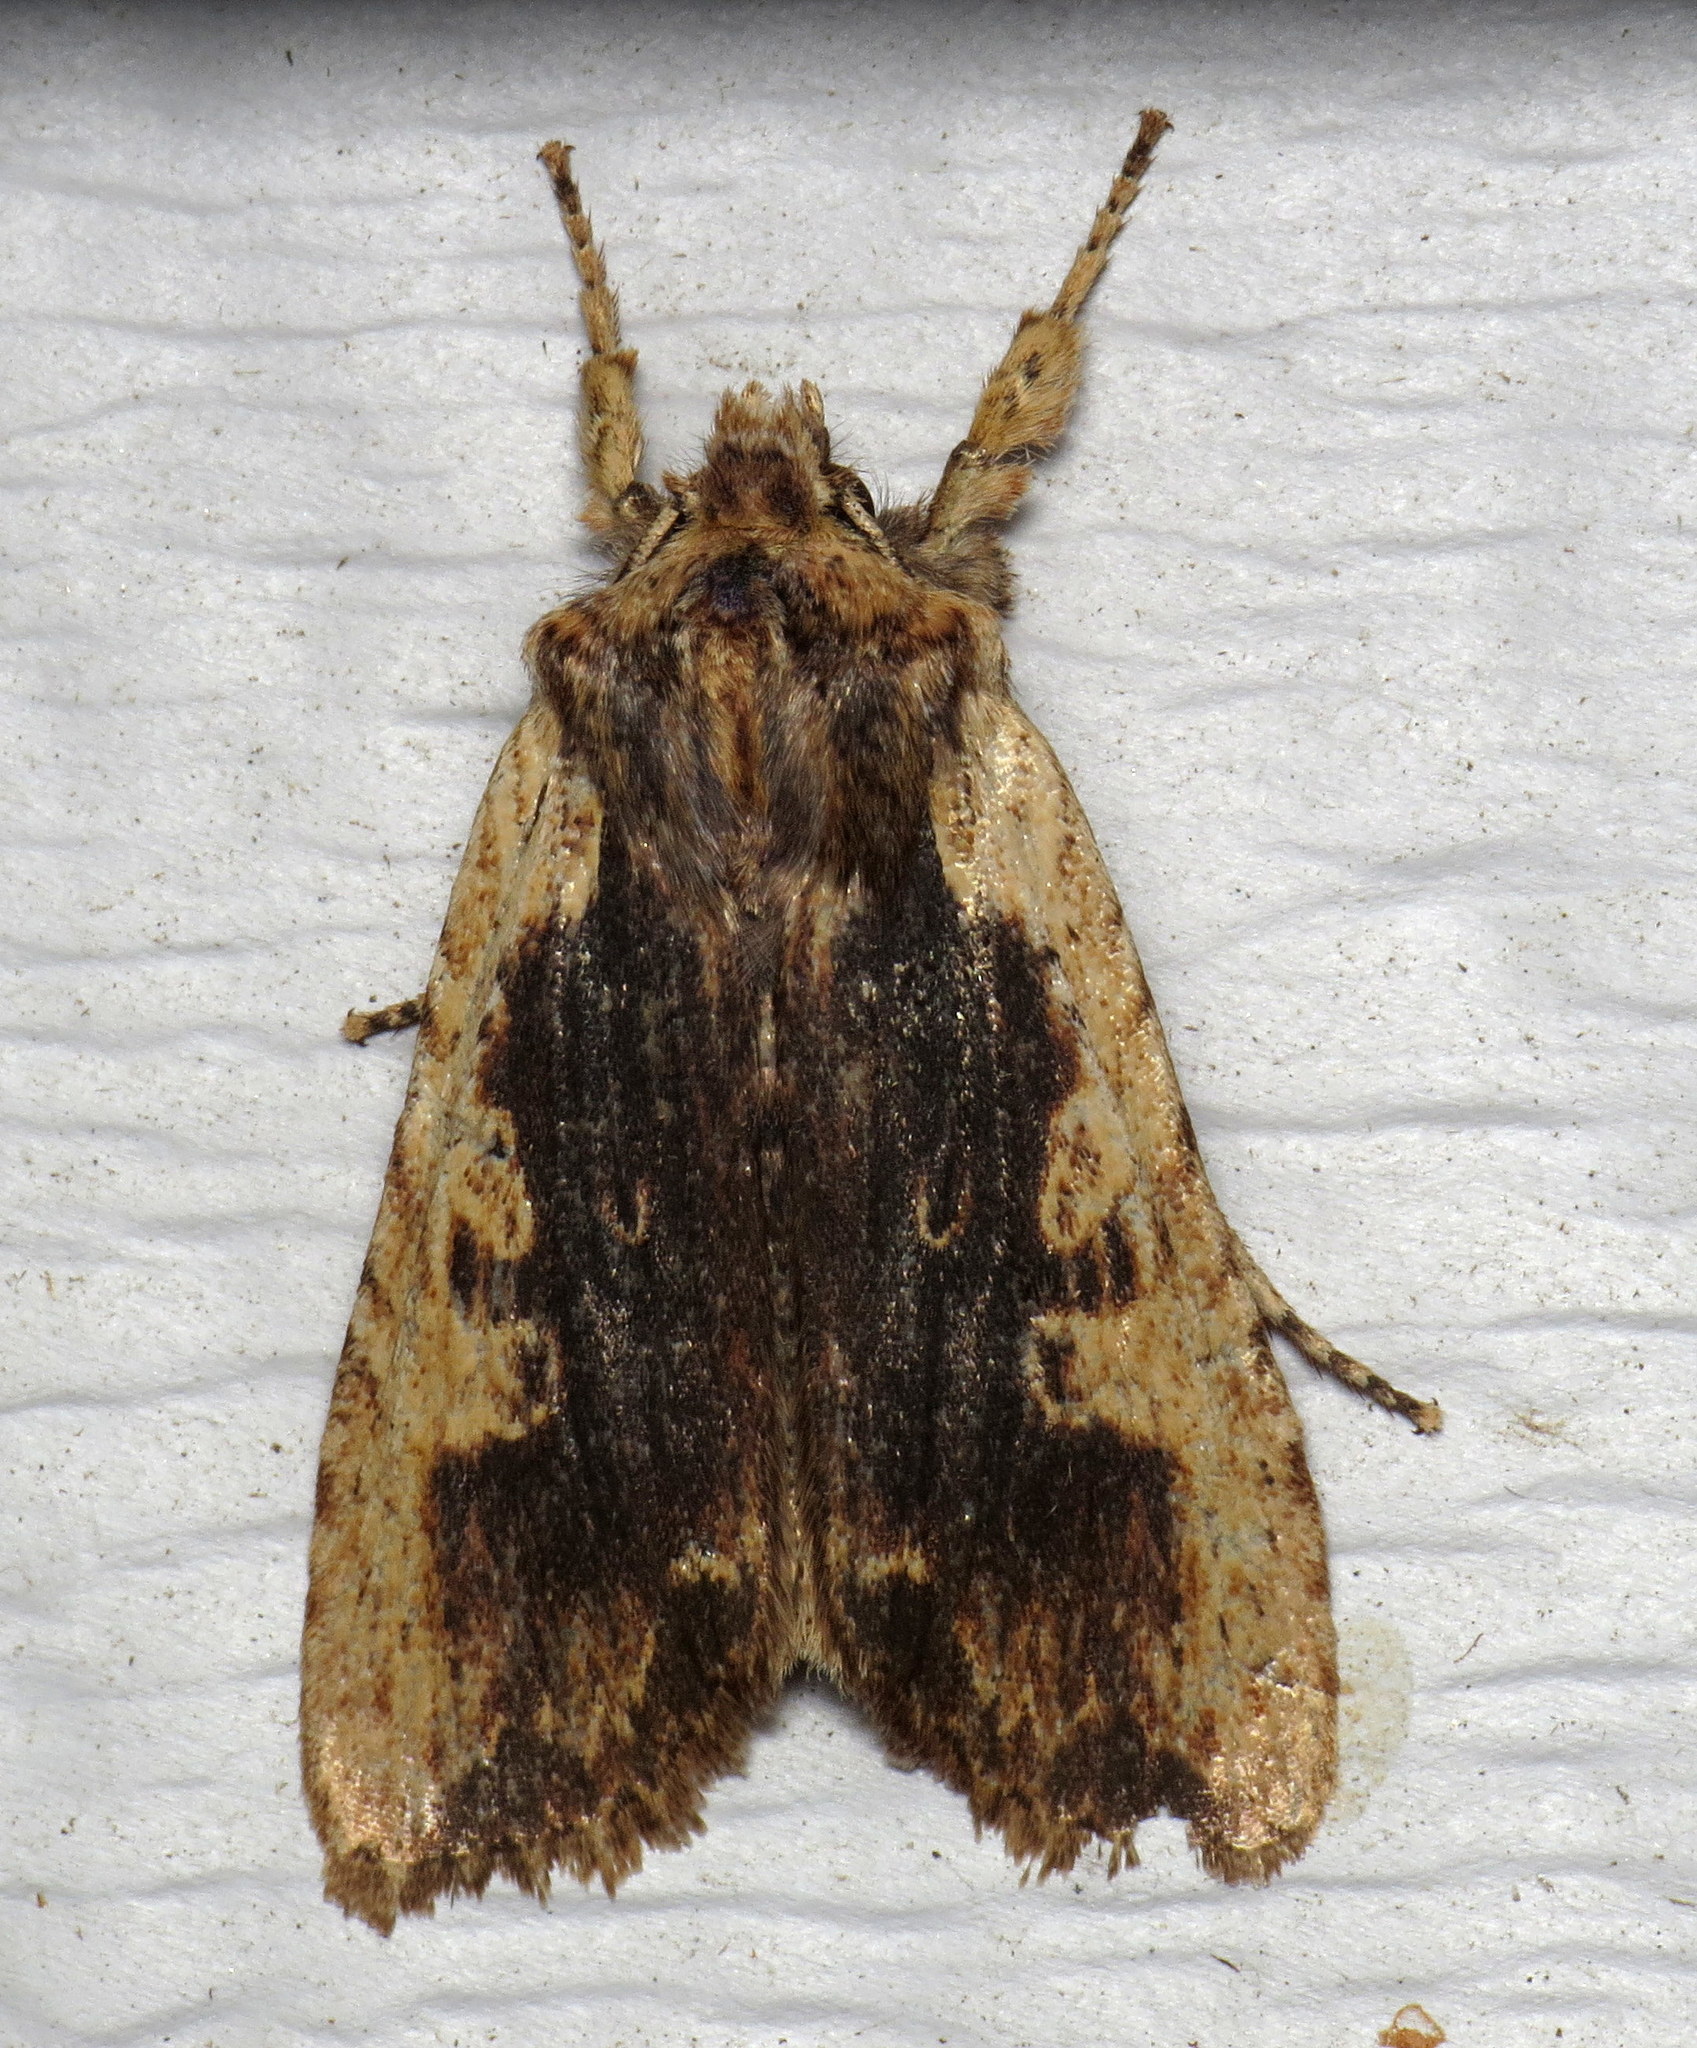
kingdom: Animalia
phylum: Arthropoda
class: Insecta
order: Lepidoptera
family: Noctuidae
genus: Lithophane
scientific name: Lithophane hemina
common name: Hemina pinion moth
